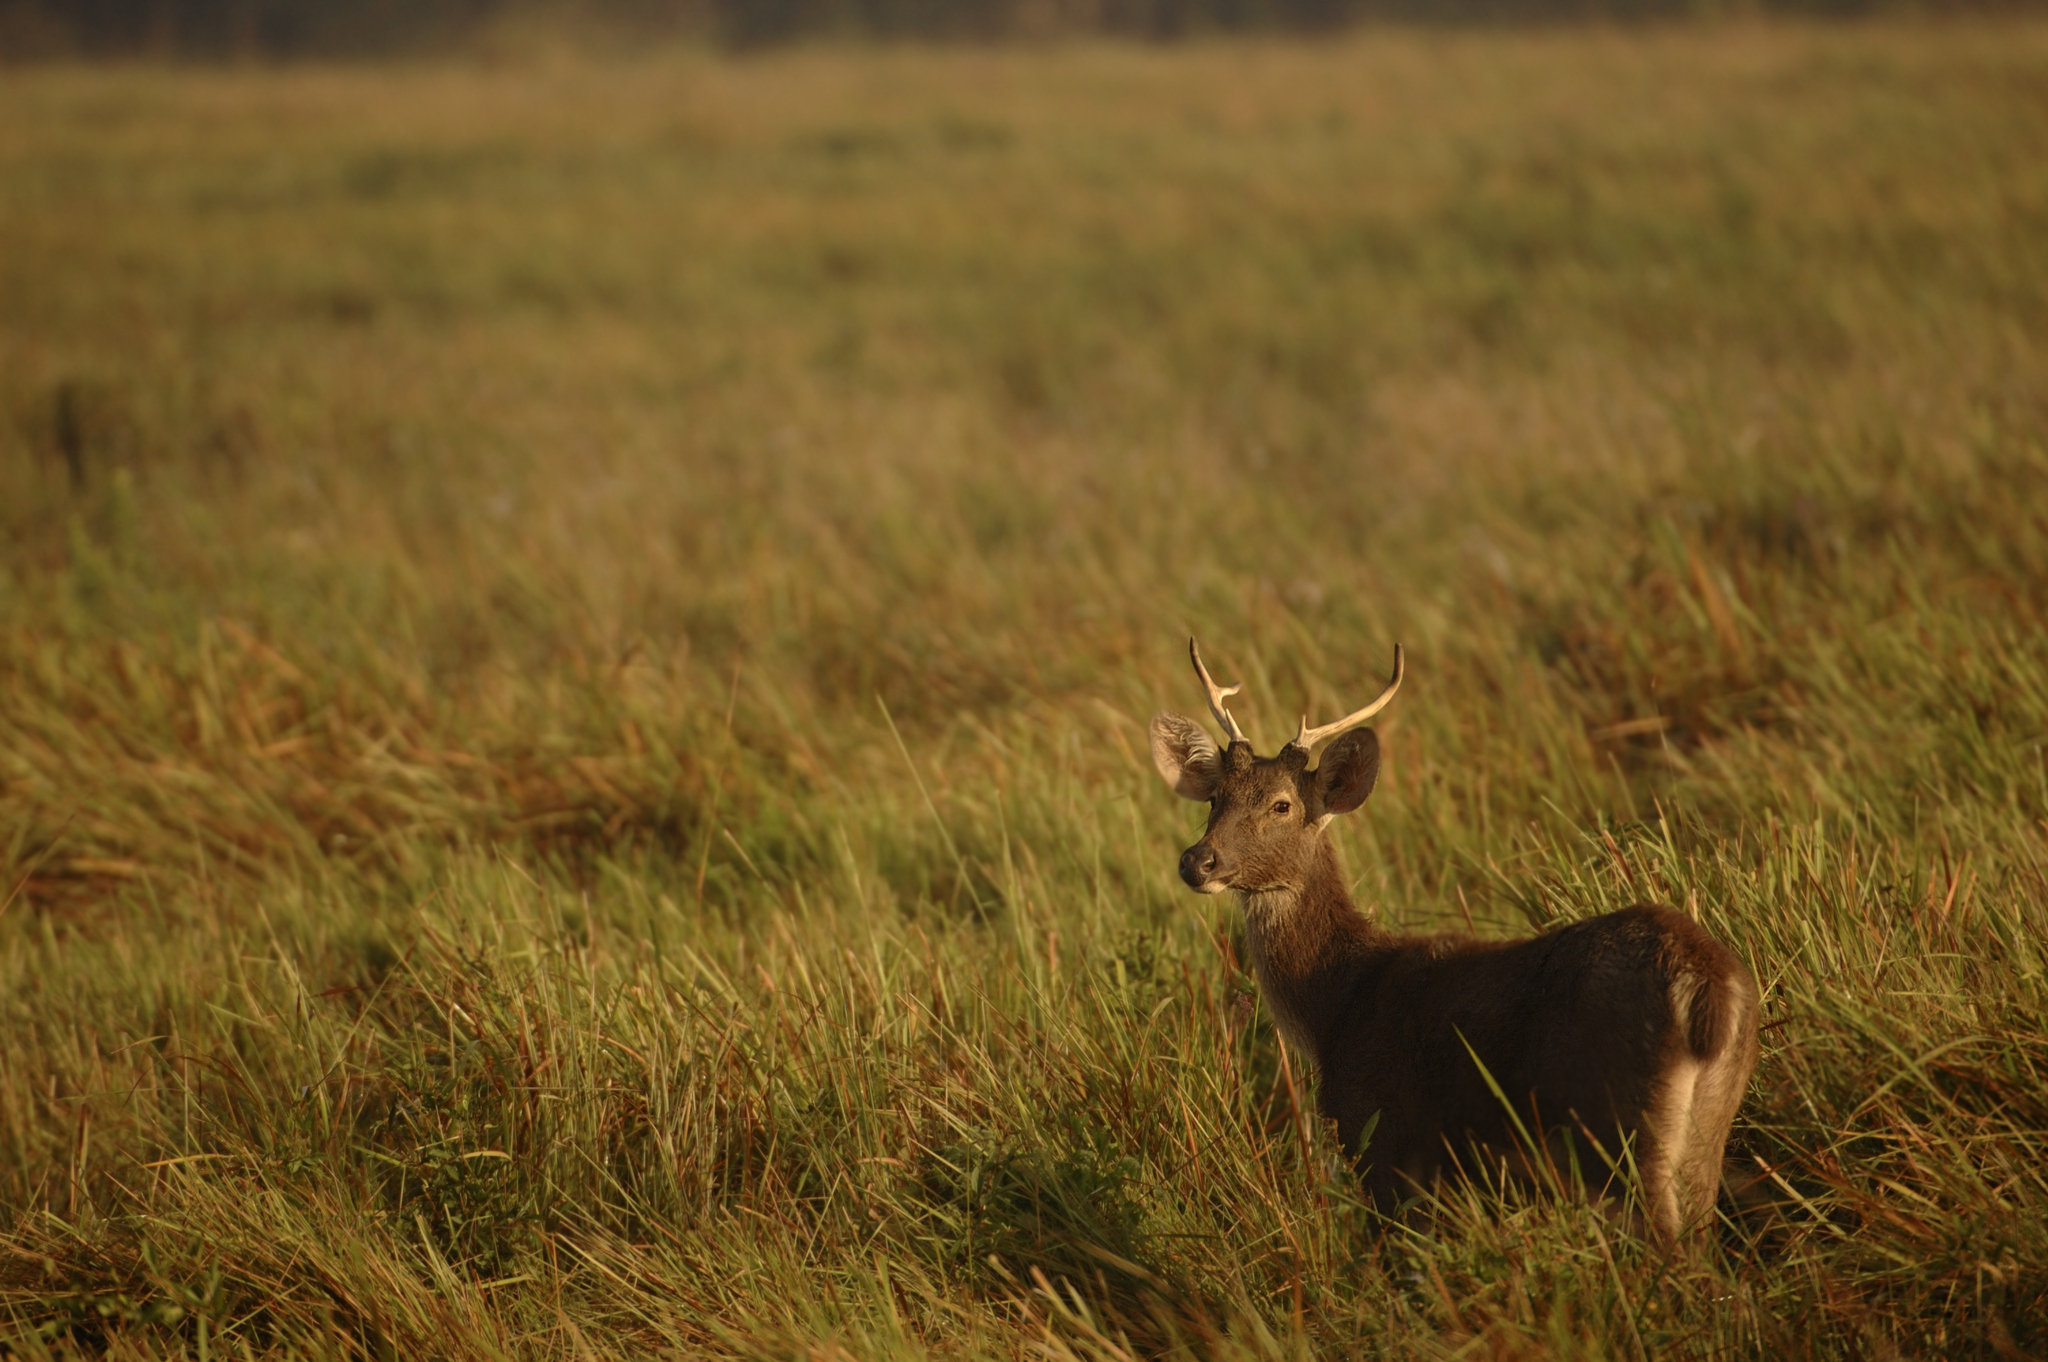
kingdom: Animalia
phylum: Chordata
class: Mammalia
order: Artiodactyla
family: Cervidae
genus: Rucervus
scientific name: Rucervus duvaucelii
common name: Barasingha
